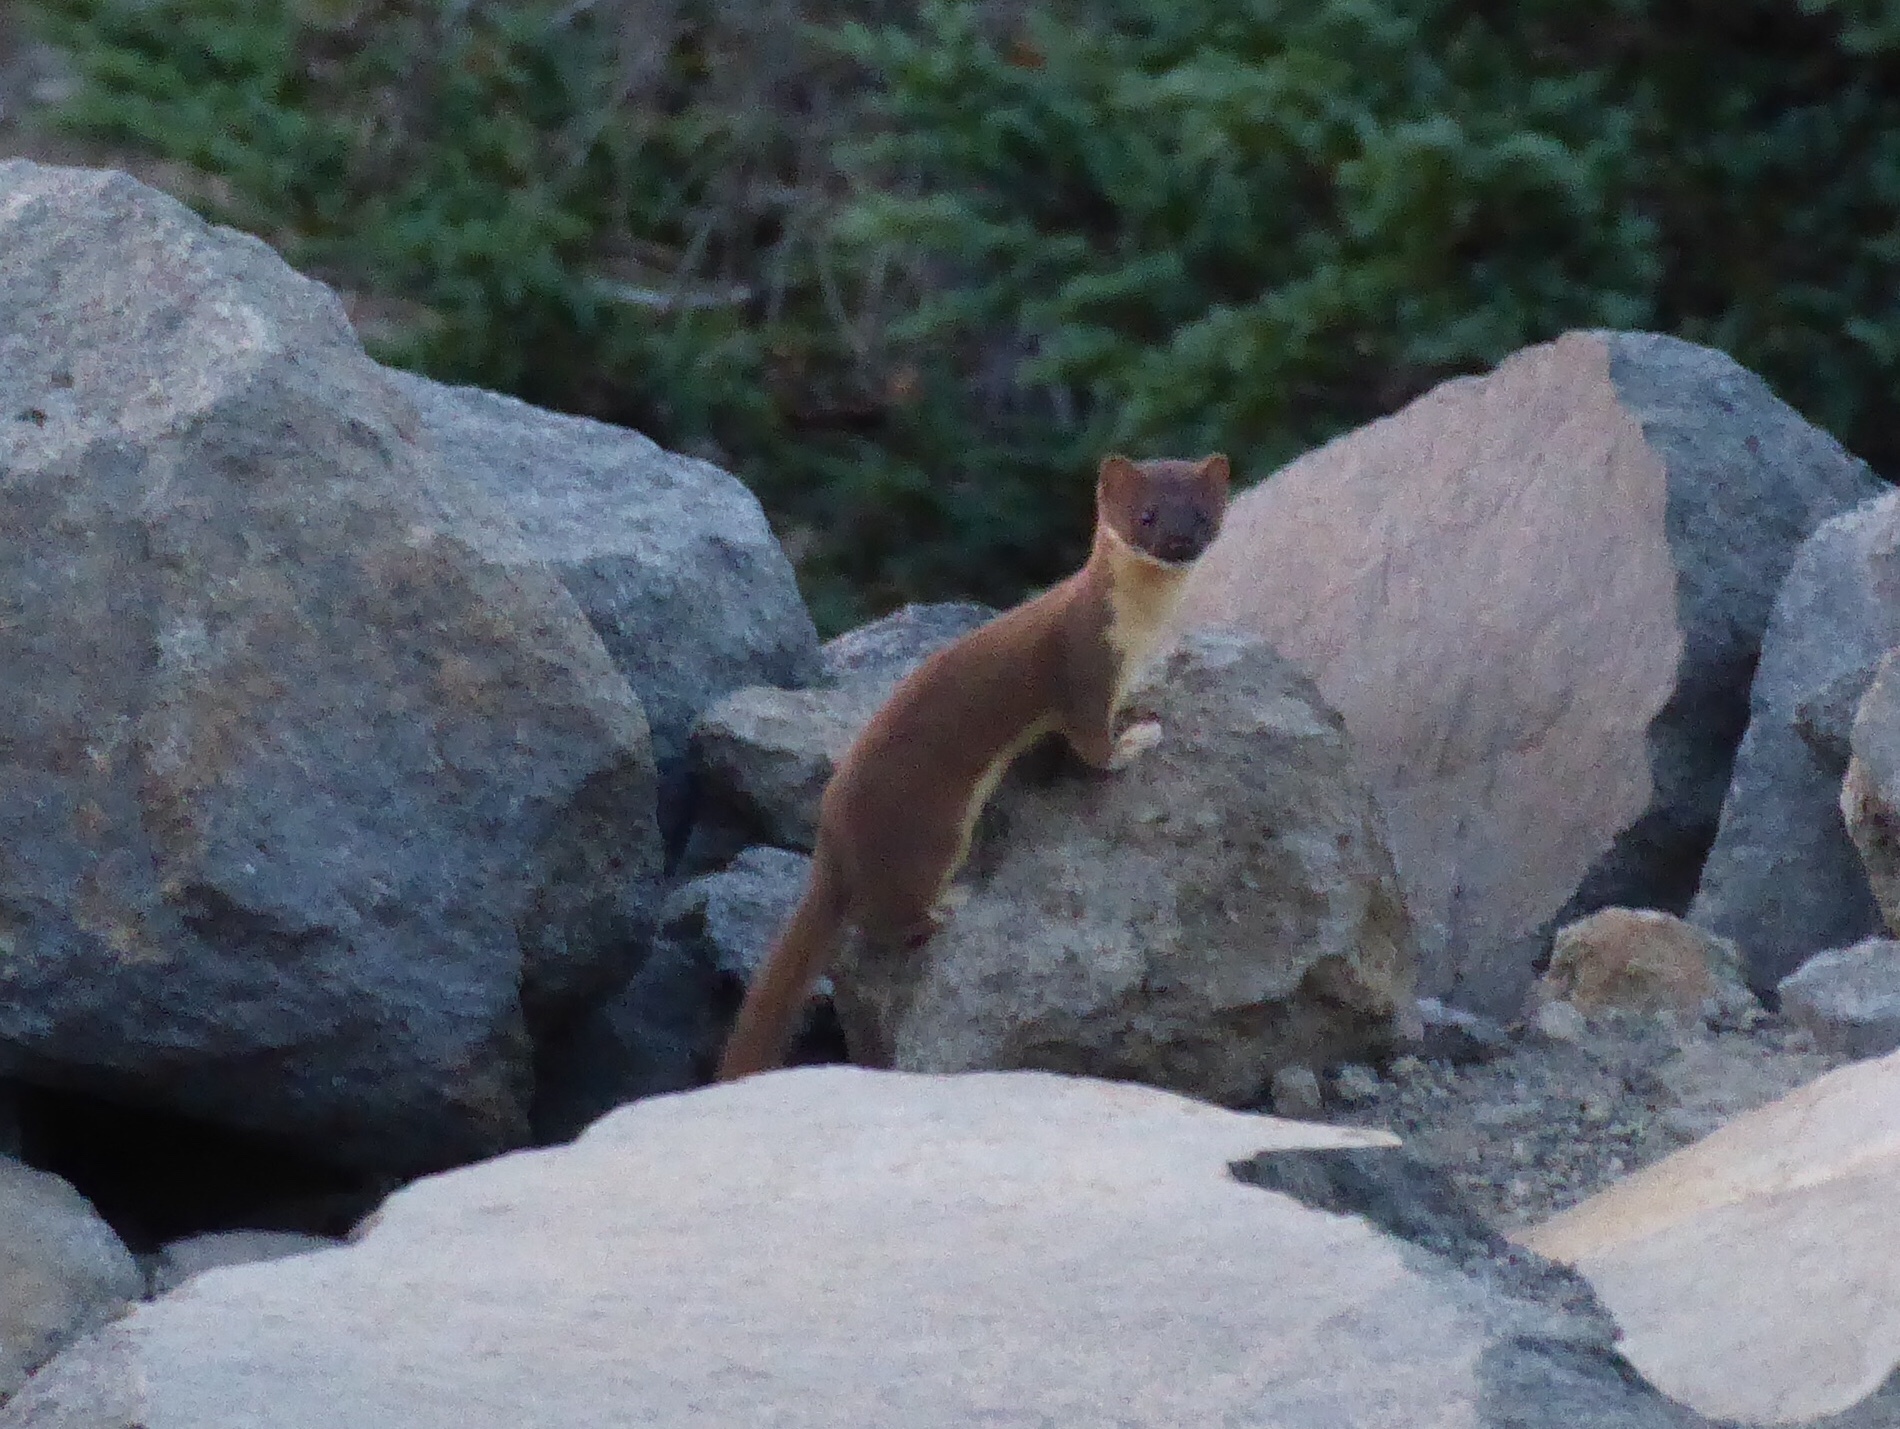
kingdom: Animalia
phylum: Chordata
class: Mammalia
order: Carnivora
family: Mustelidae
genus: Mustela
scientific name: Mustela
